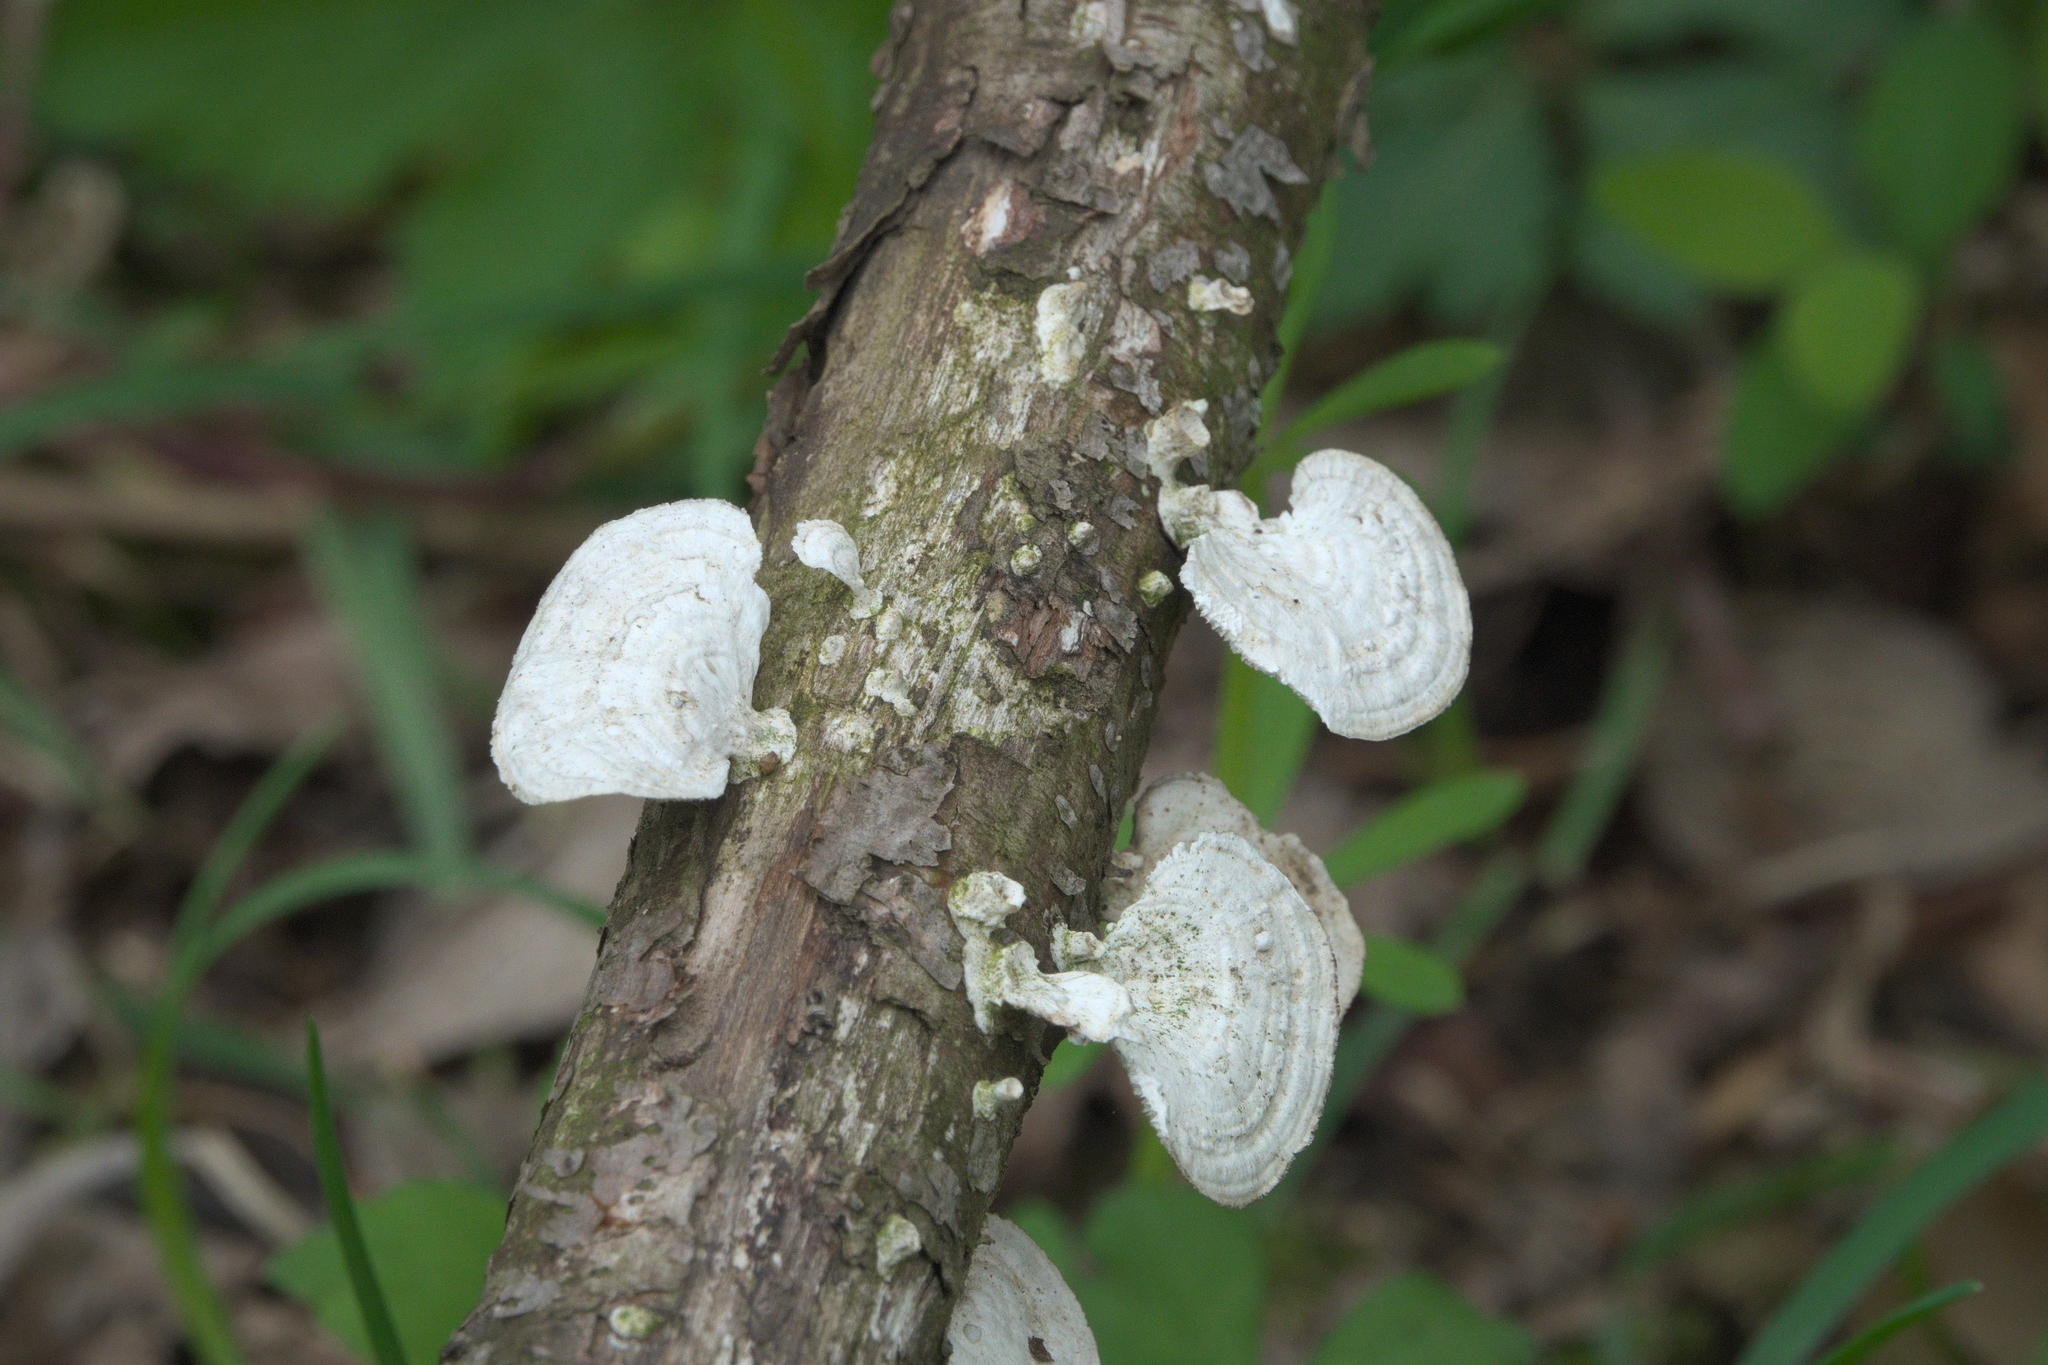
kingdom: Fungi
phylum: Basidiomycota
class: Agaricomycetes
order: Polyporales
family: Polyporaceae
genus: Poronidulus
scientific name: Poronidulus conchifer
